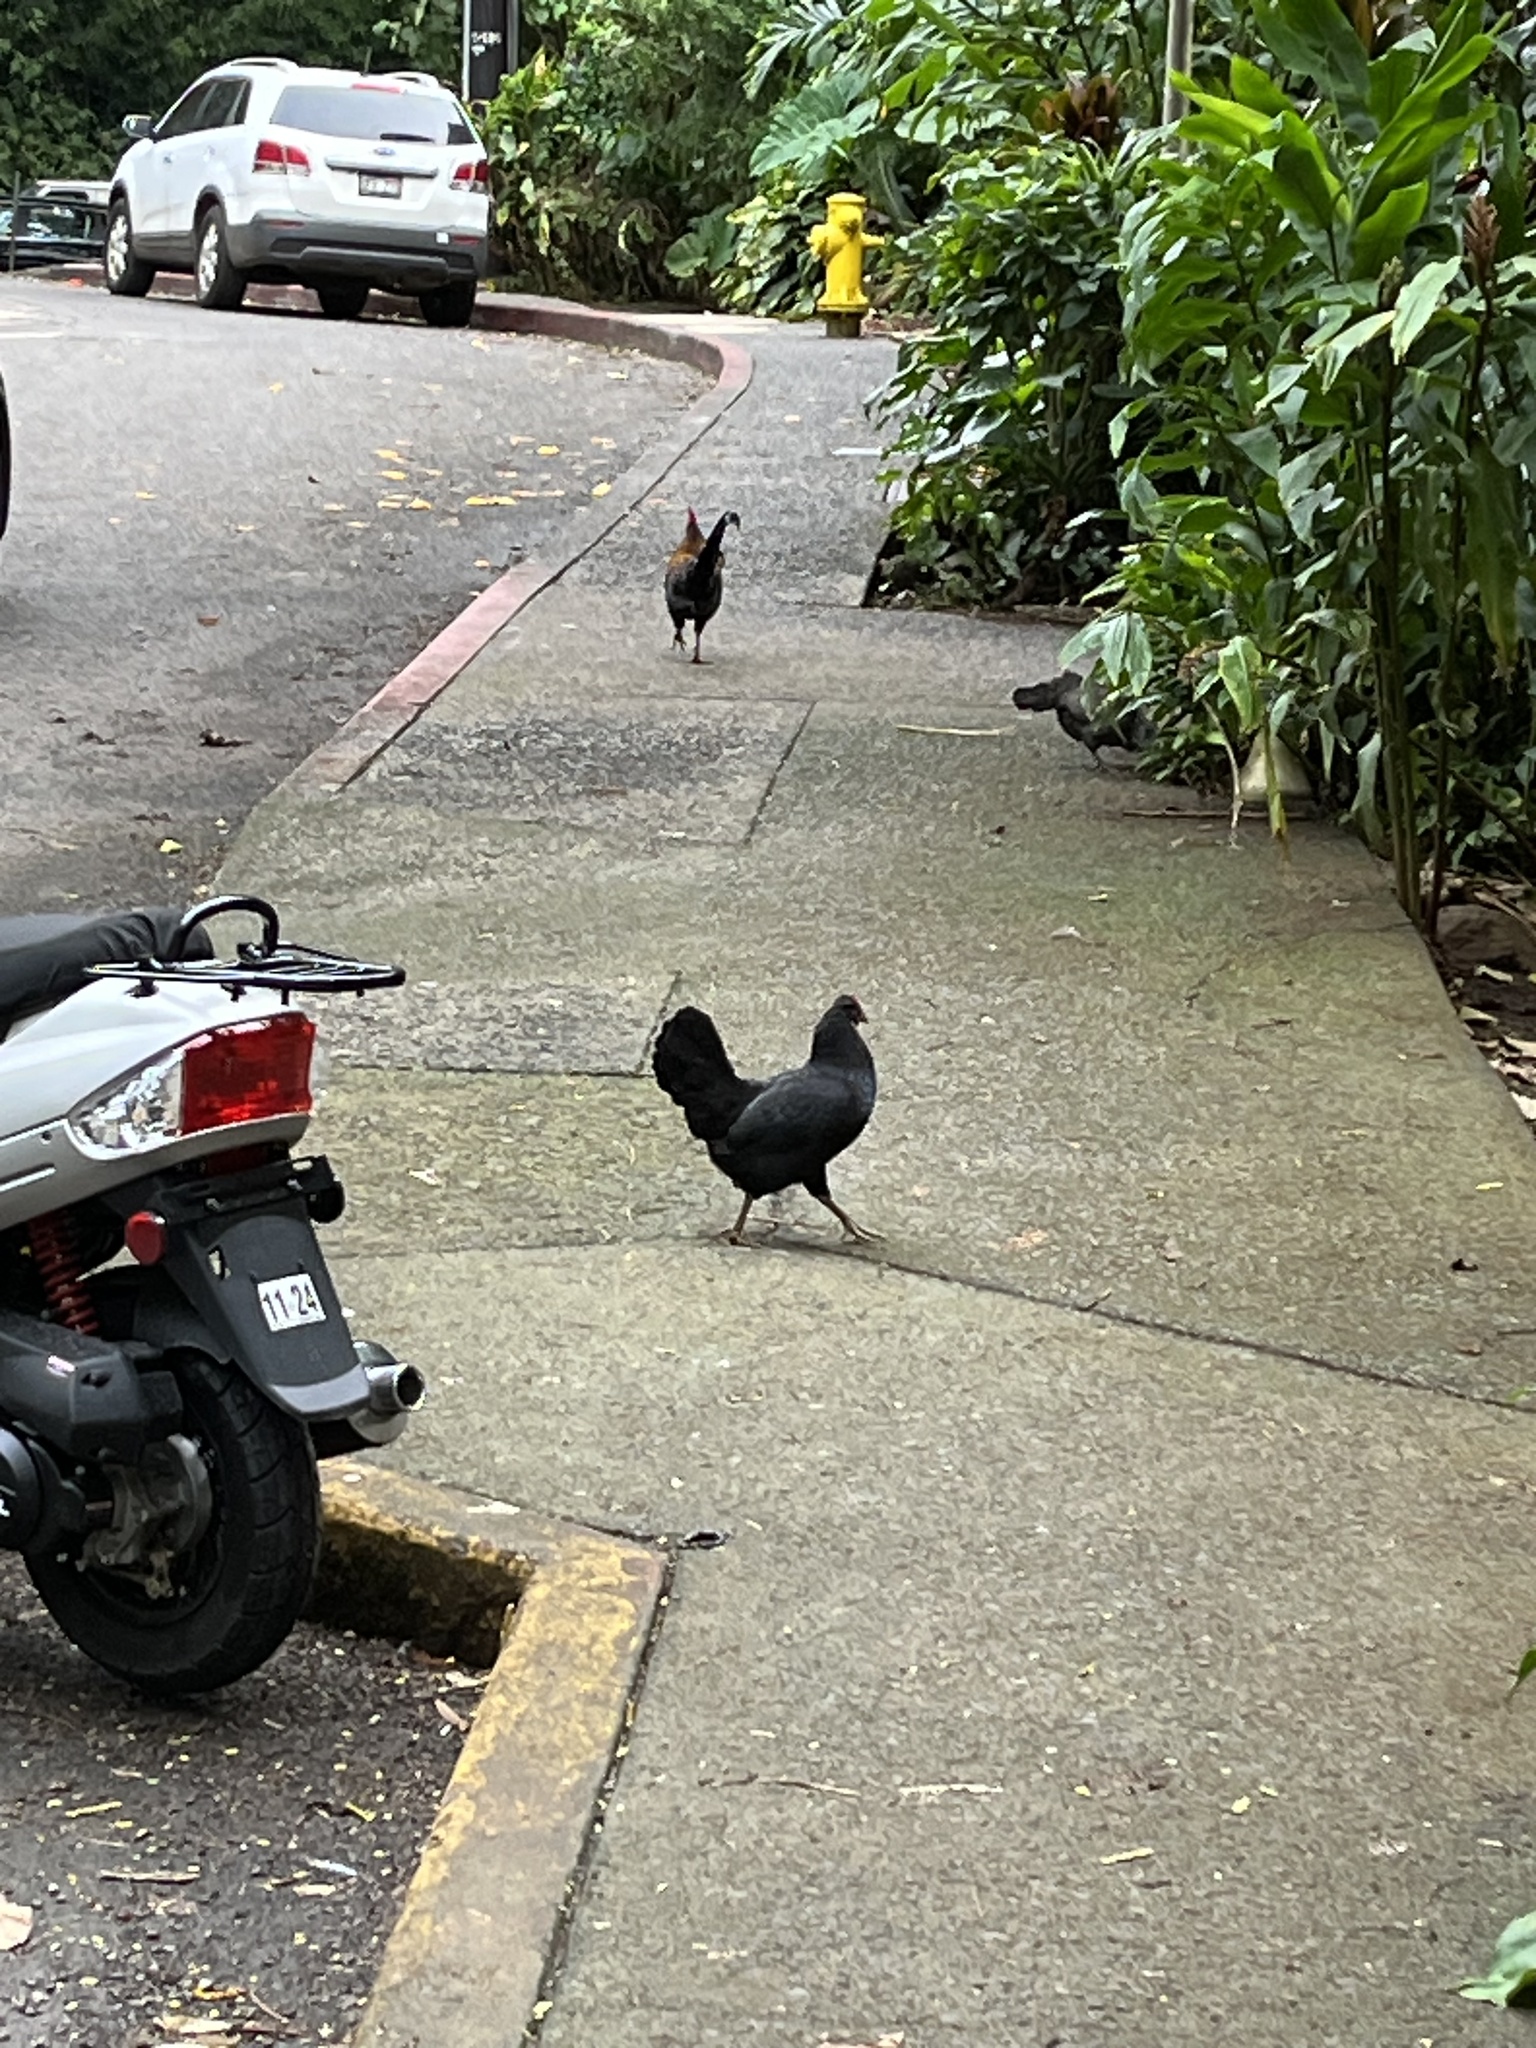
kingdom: Animalia
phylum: Chordata
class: Aves
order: Galliformes
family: Phasianidae
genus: Gallus
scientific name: Gallus gallus
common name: Red junglefowl
